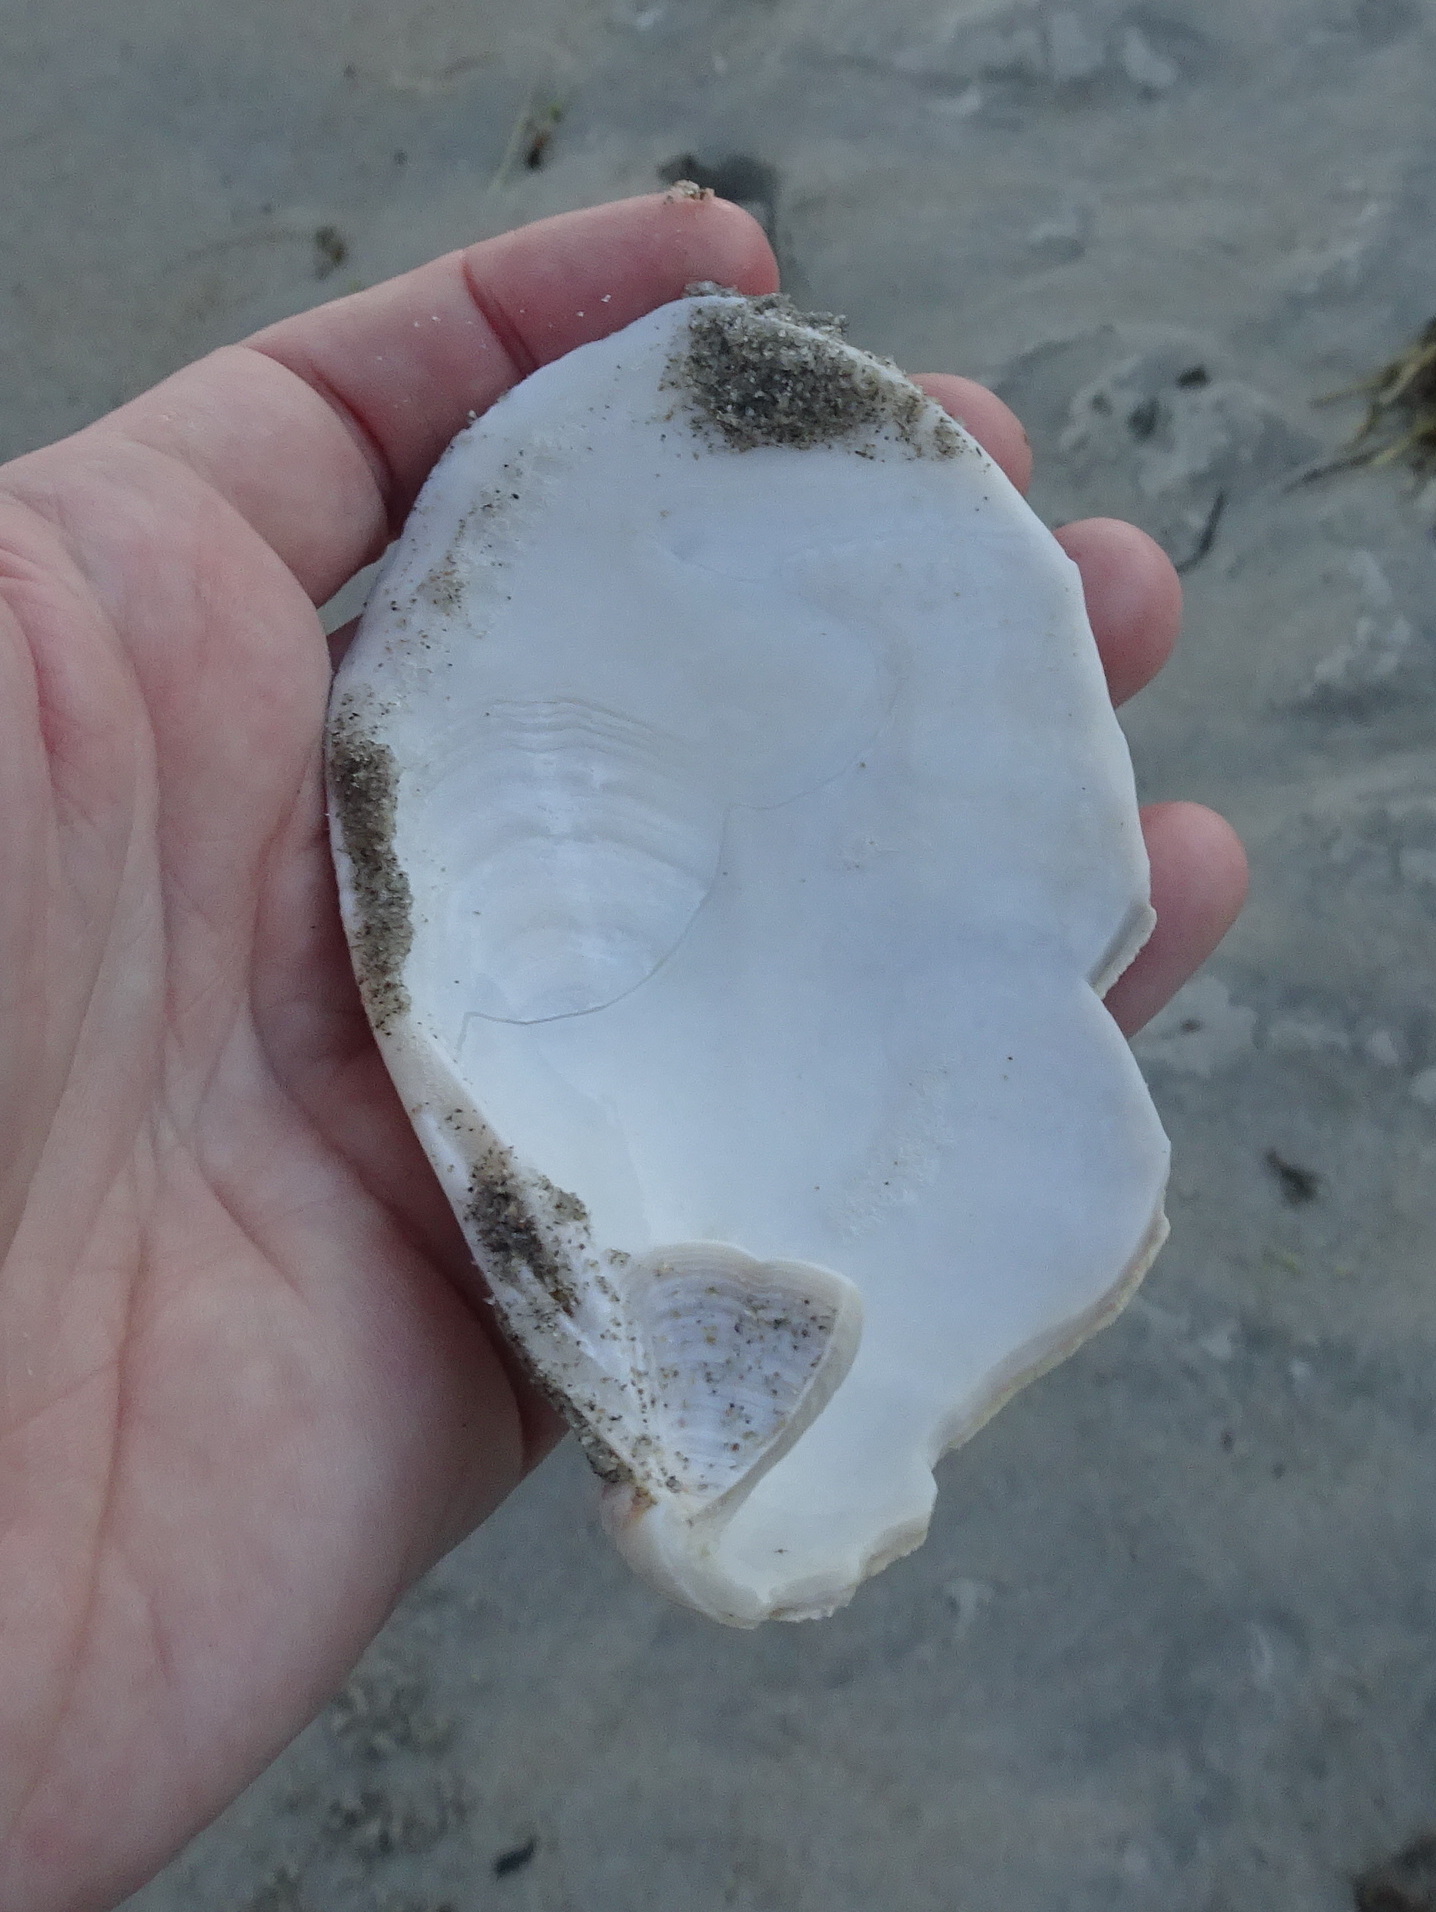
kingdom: Animalia
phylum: Mollusca
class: Bivalvia
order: Venerida
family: Mactridae
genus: Spisula
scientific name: Spisula solidissima
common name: Atlantic surf clam
